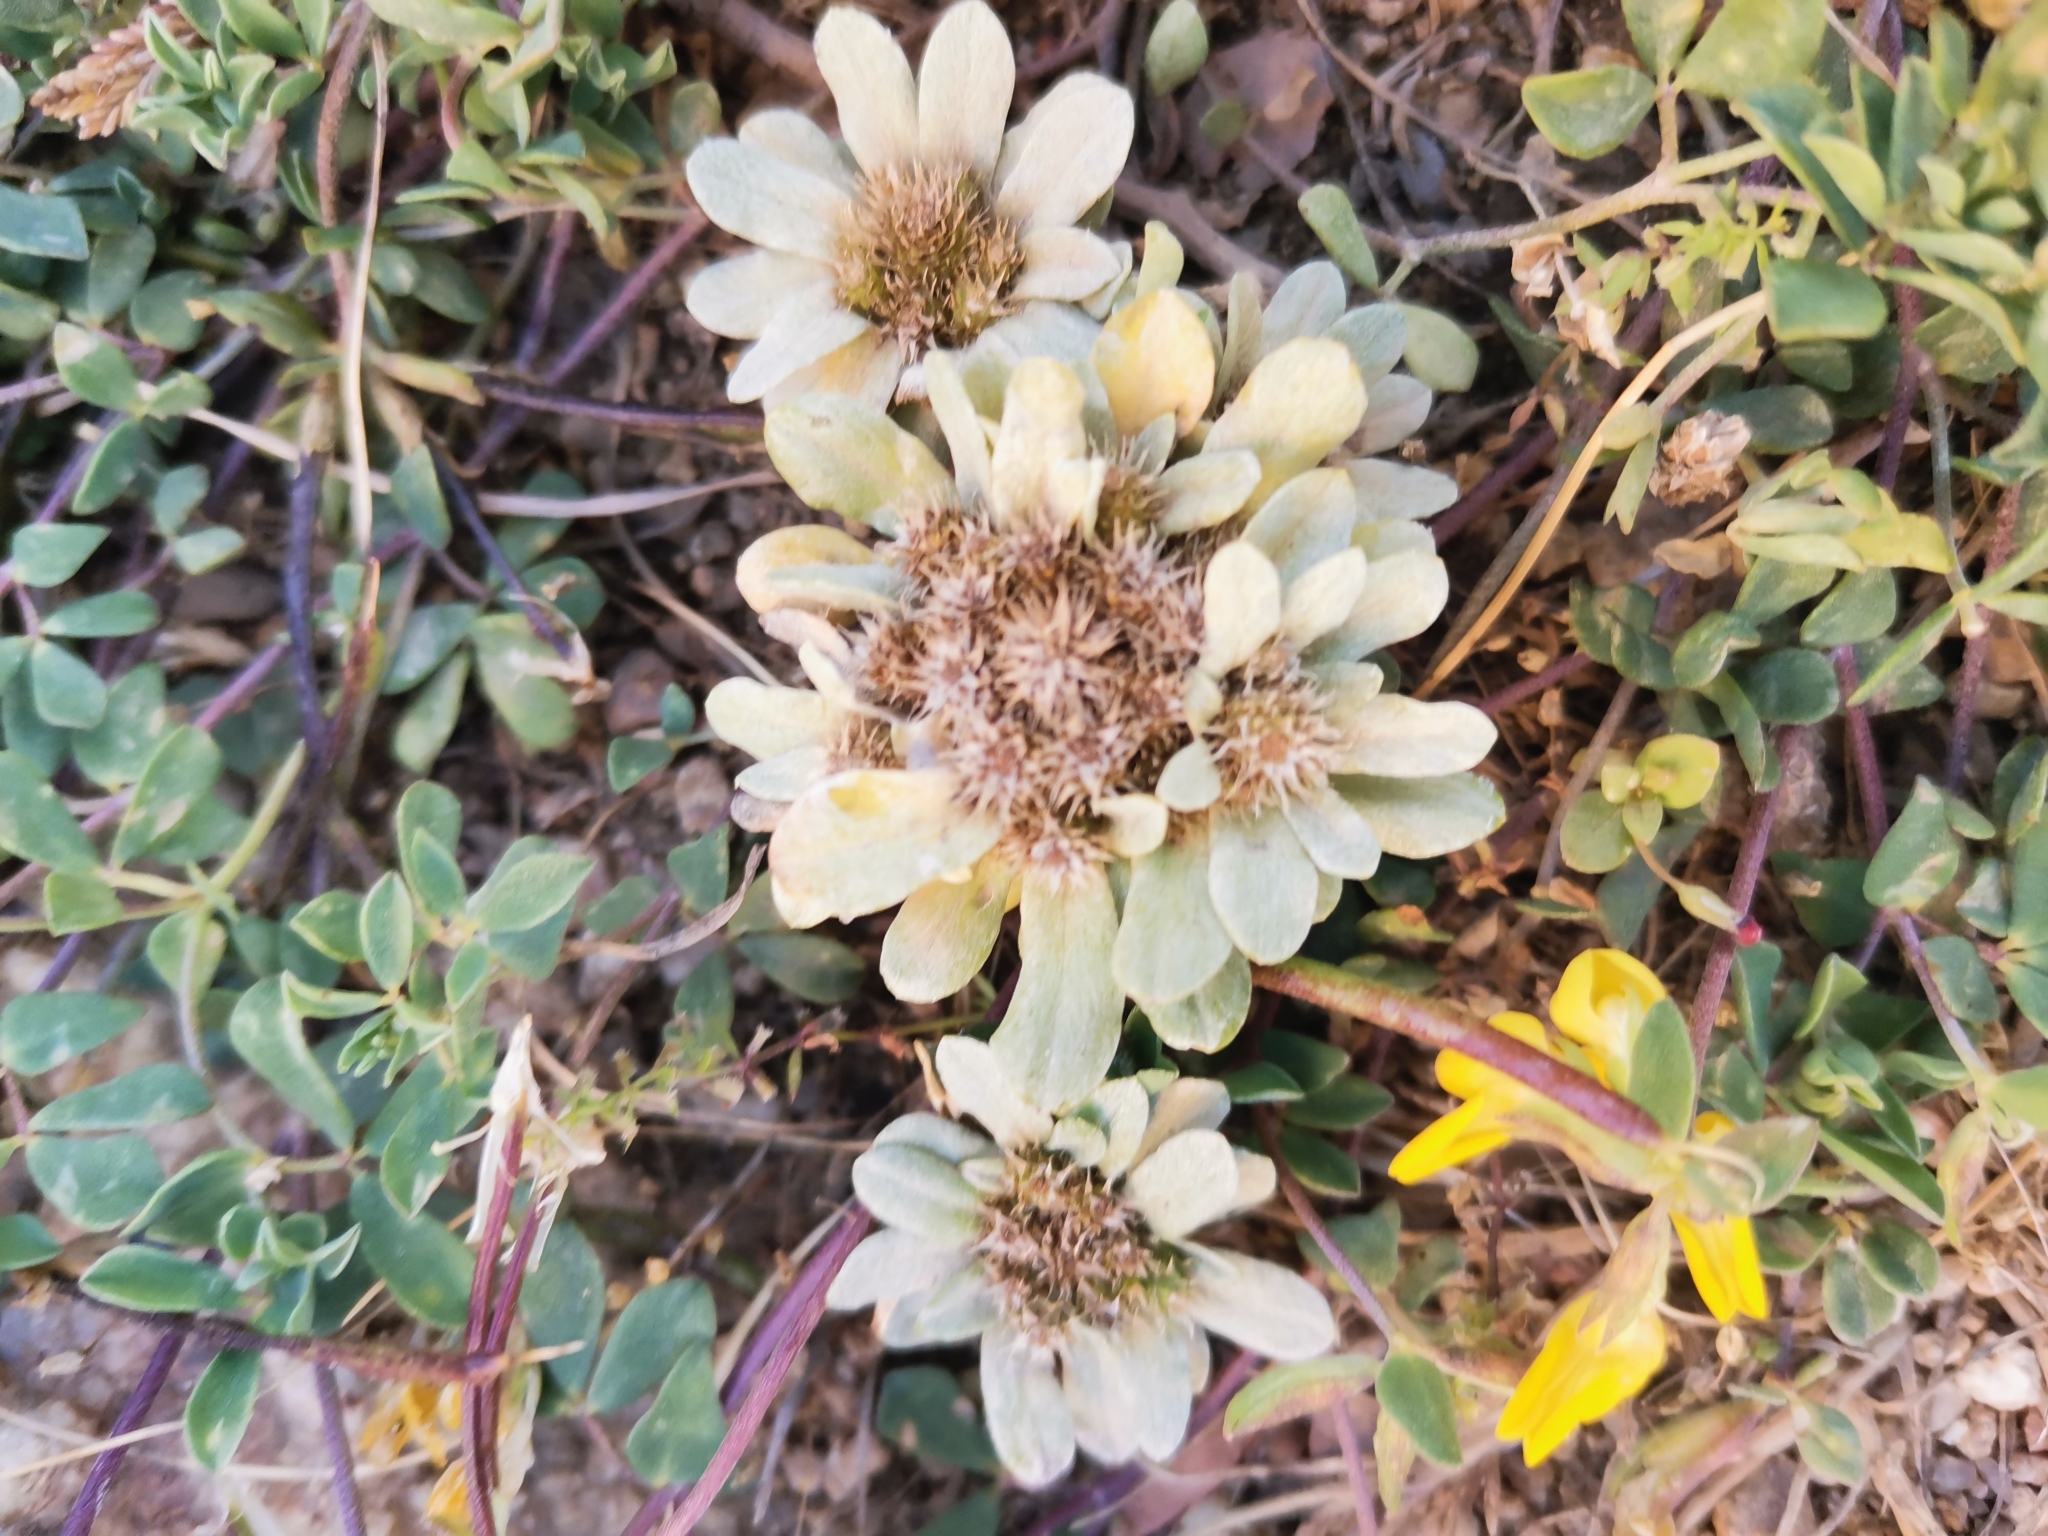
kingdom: Plantae
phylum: Tracheophyta
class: Magnoliopsida
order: Asterales
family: Asteraceae
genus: Filago
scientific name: Filago pygmaea
